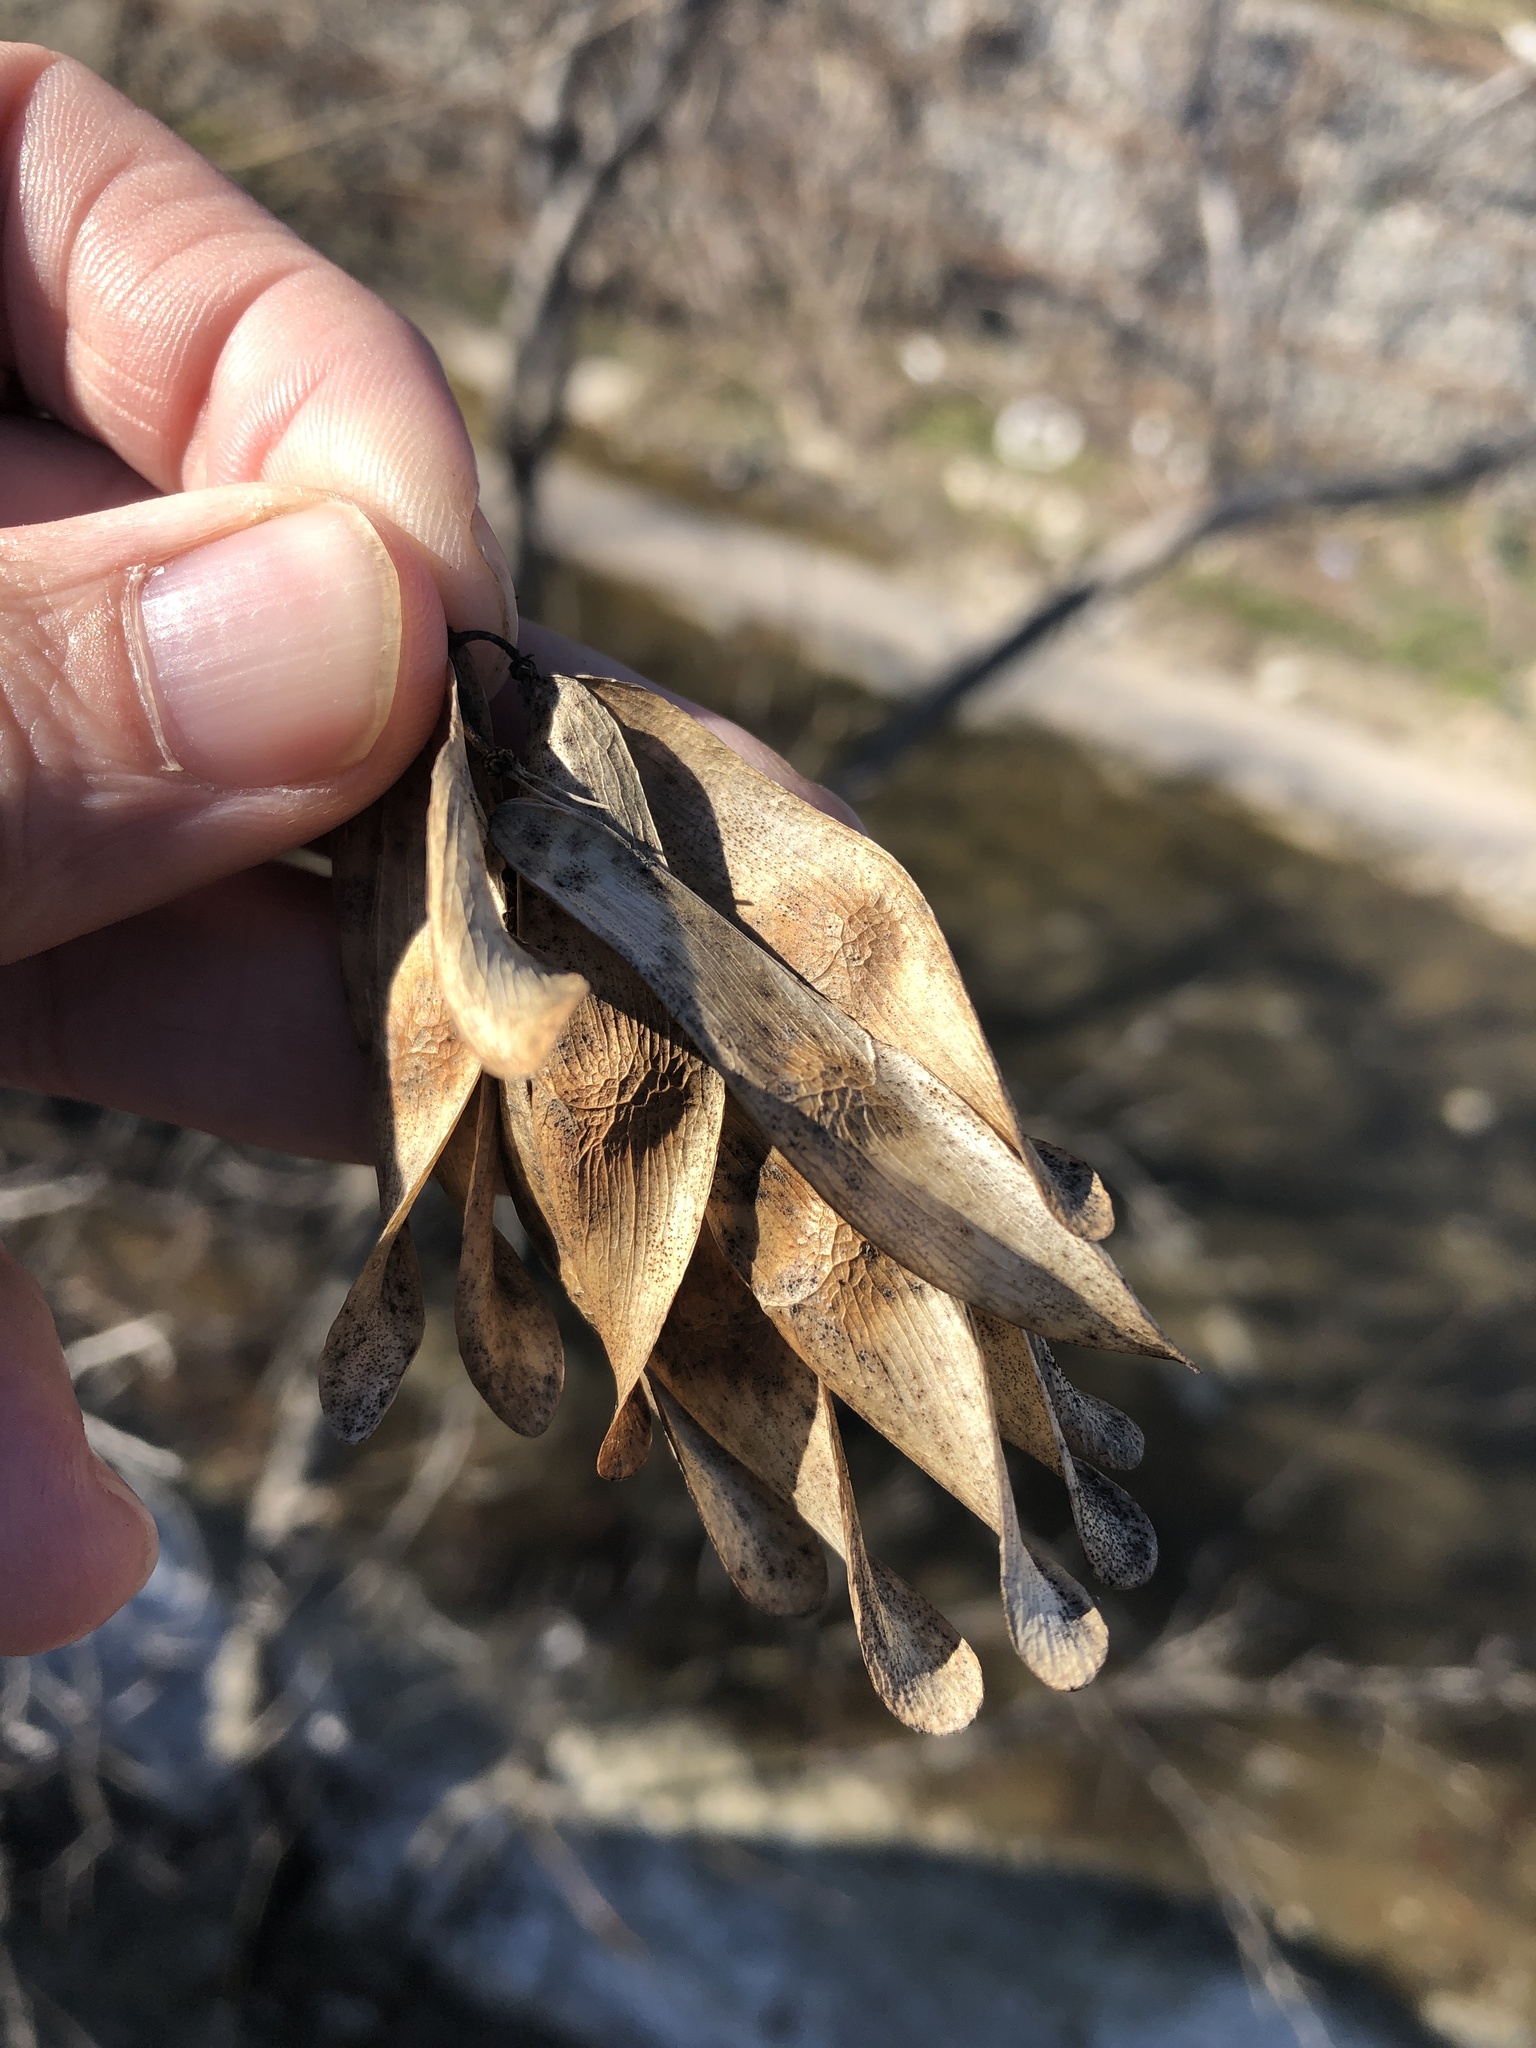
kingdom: Plantae
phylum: Tracheophyta
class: Magnoliopsida
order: Sapindales
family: Simaroubaceae
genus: Ailanthus
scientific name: Ailanthus altissima
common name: Tree-of-heaven
